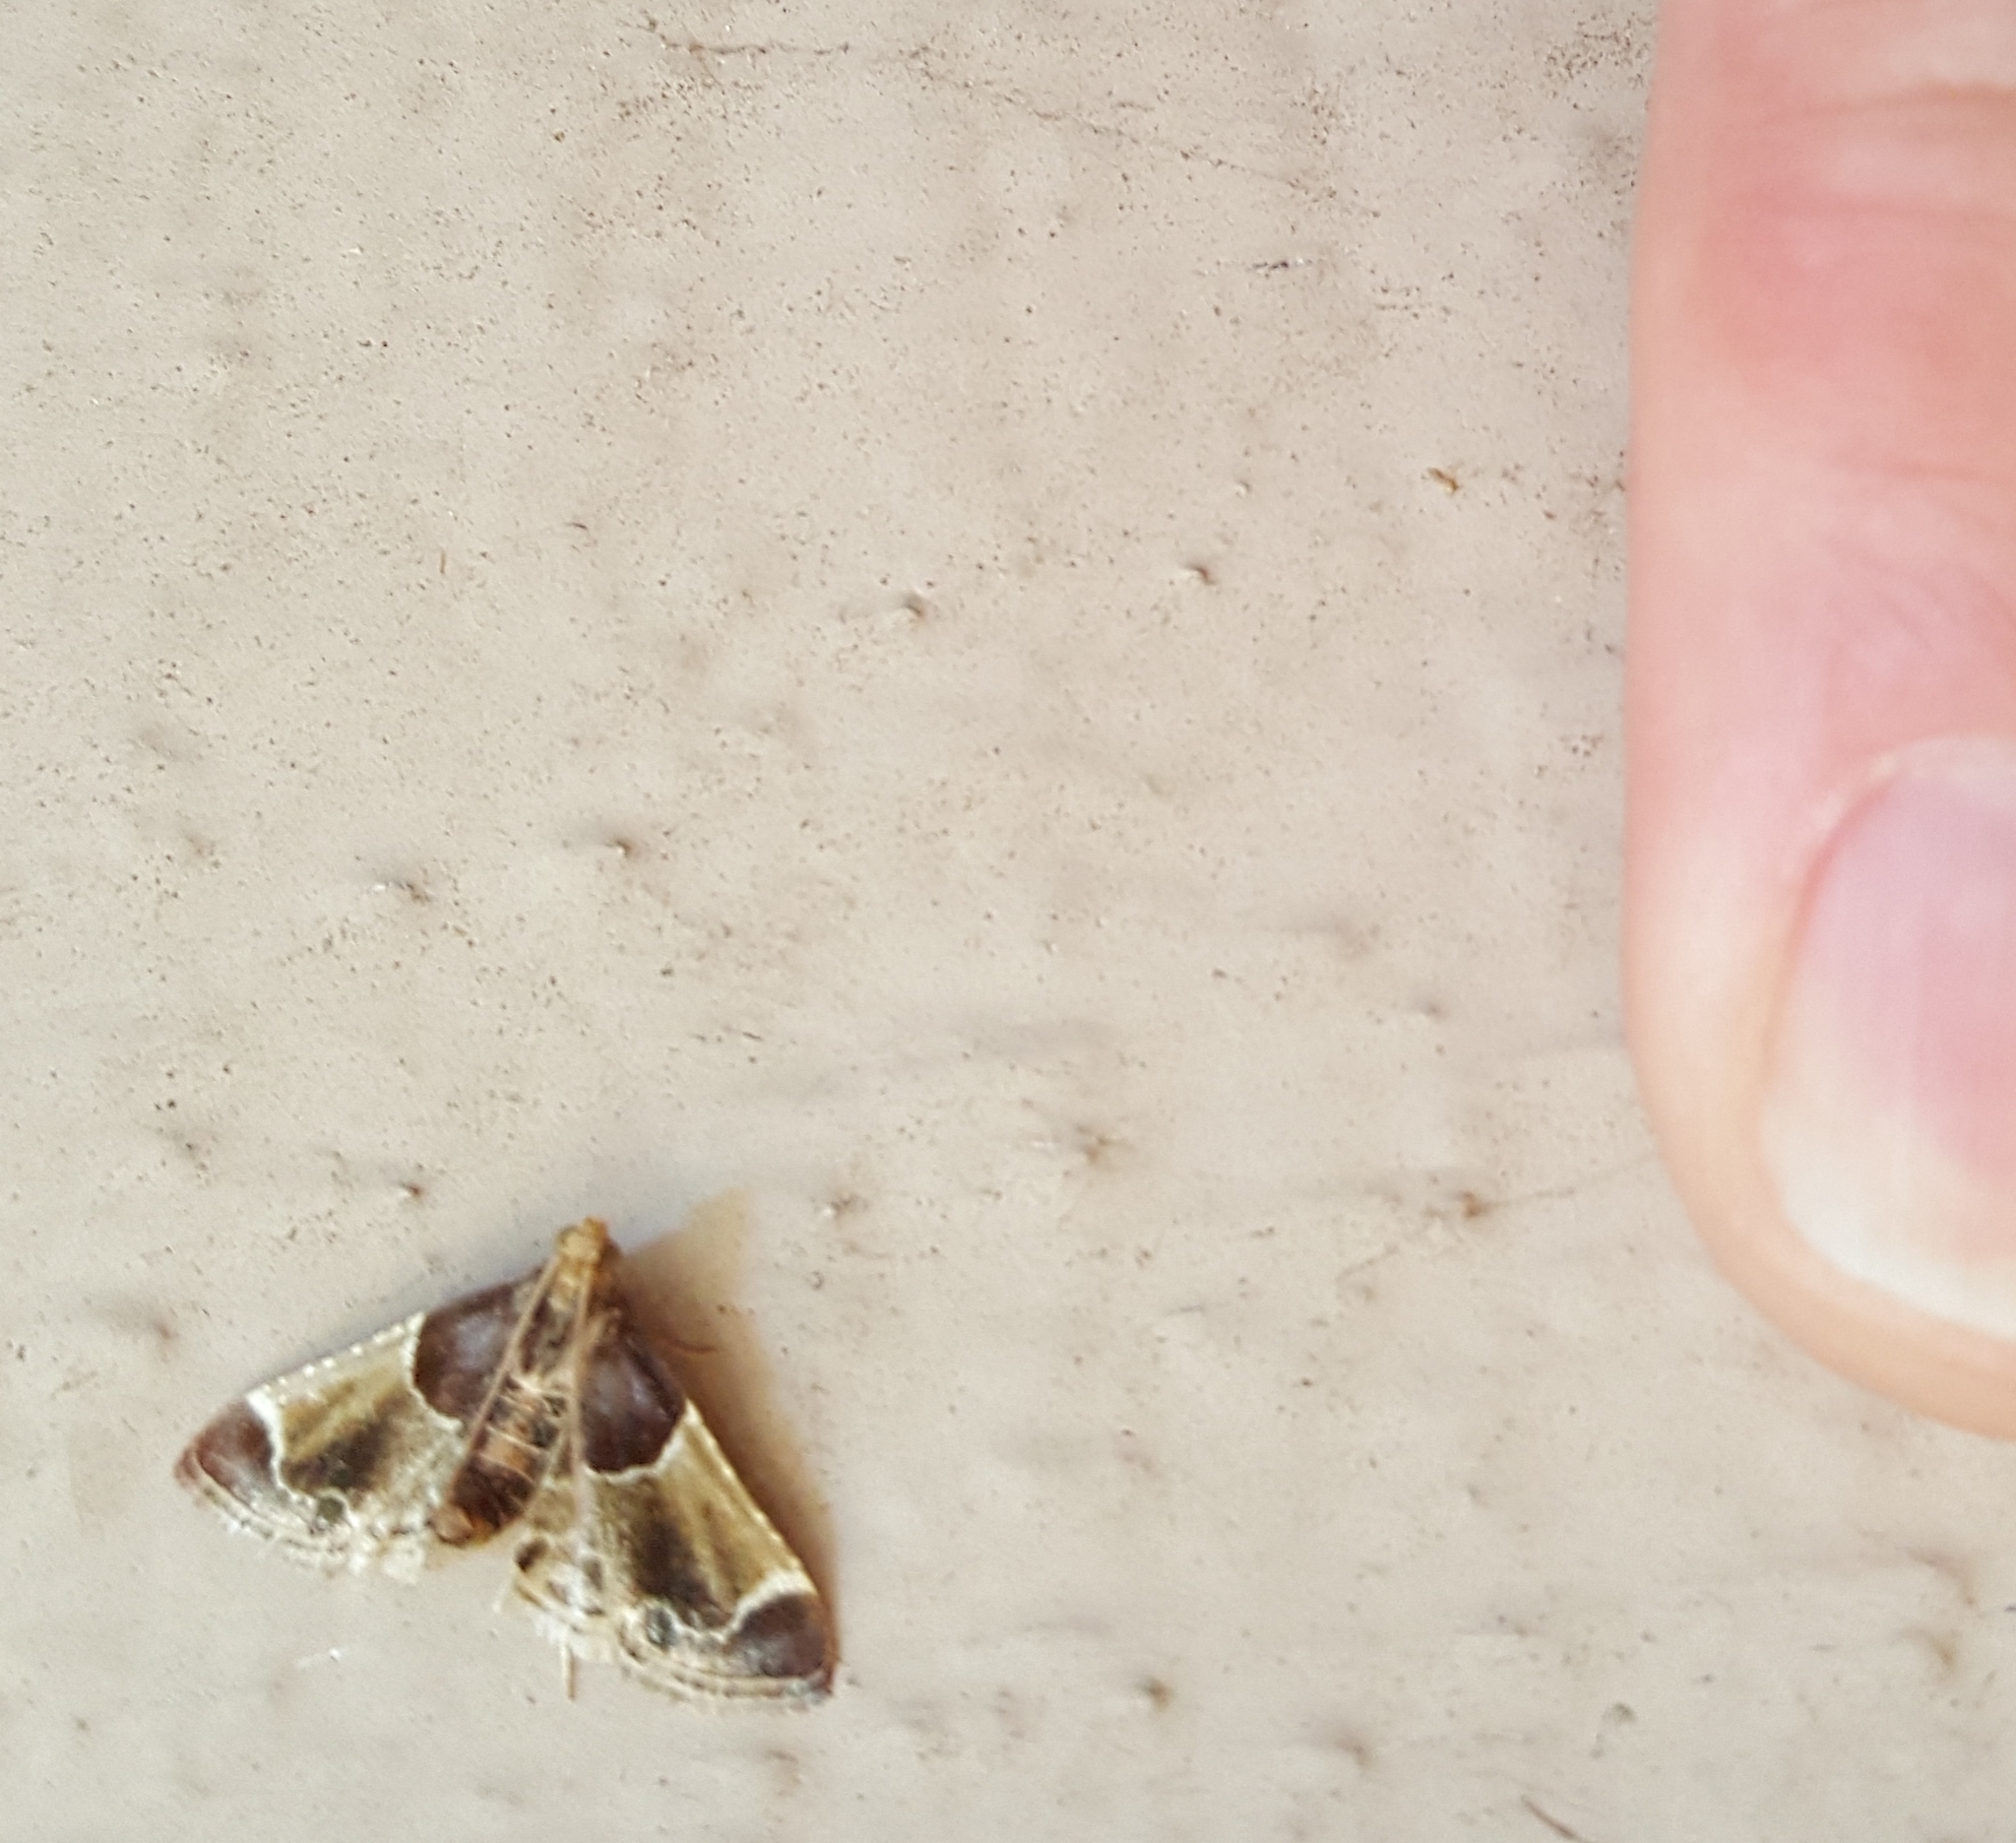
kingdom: Animalia
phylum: Arthropoda
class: Insecta
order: Lepidoptera
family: Pyralidae
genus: Pyralis
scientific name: Pyralis farinalis
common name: Meal moth
